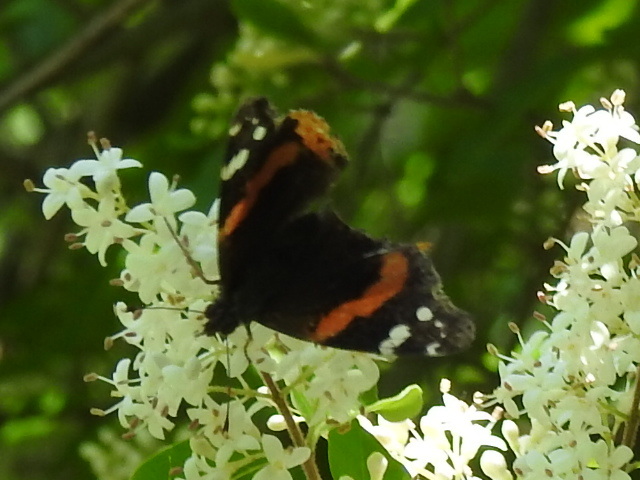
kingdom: Animalia
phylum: Arthropoda
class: Insecta
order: Lepidoptera
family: Nymphalidae
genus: Vanessa
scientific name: Vanessa atalanta
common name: Red admiral
